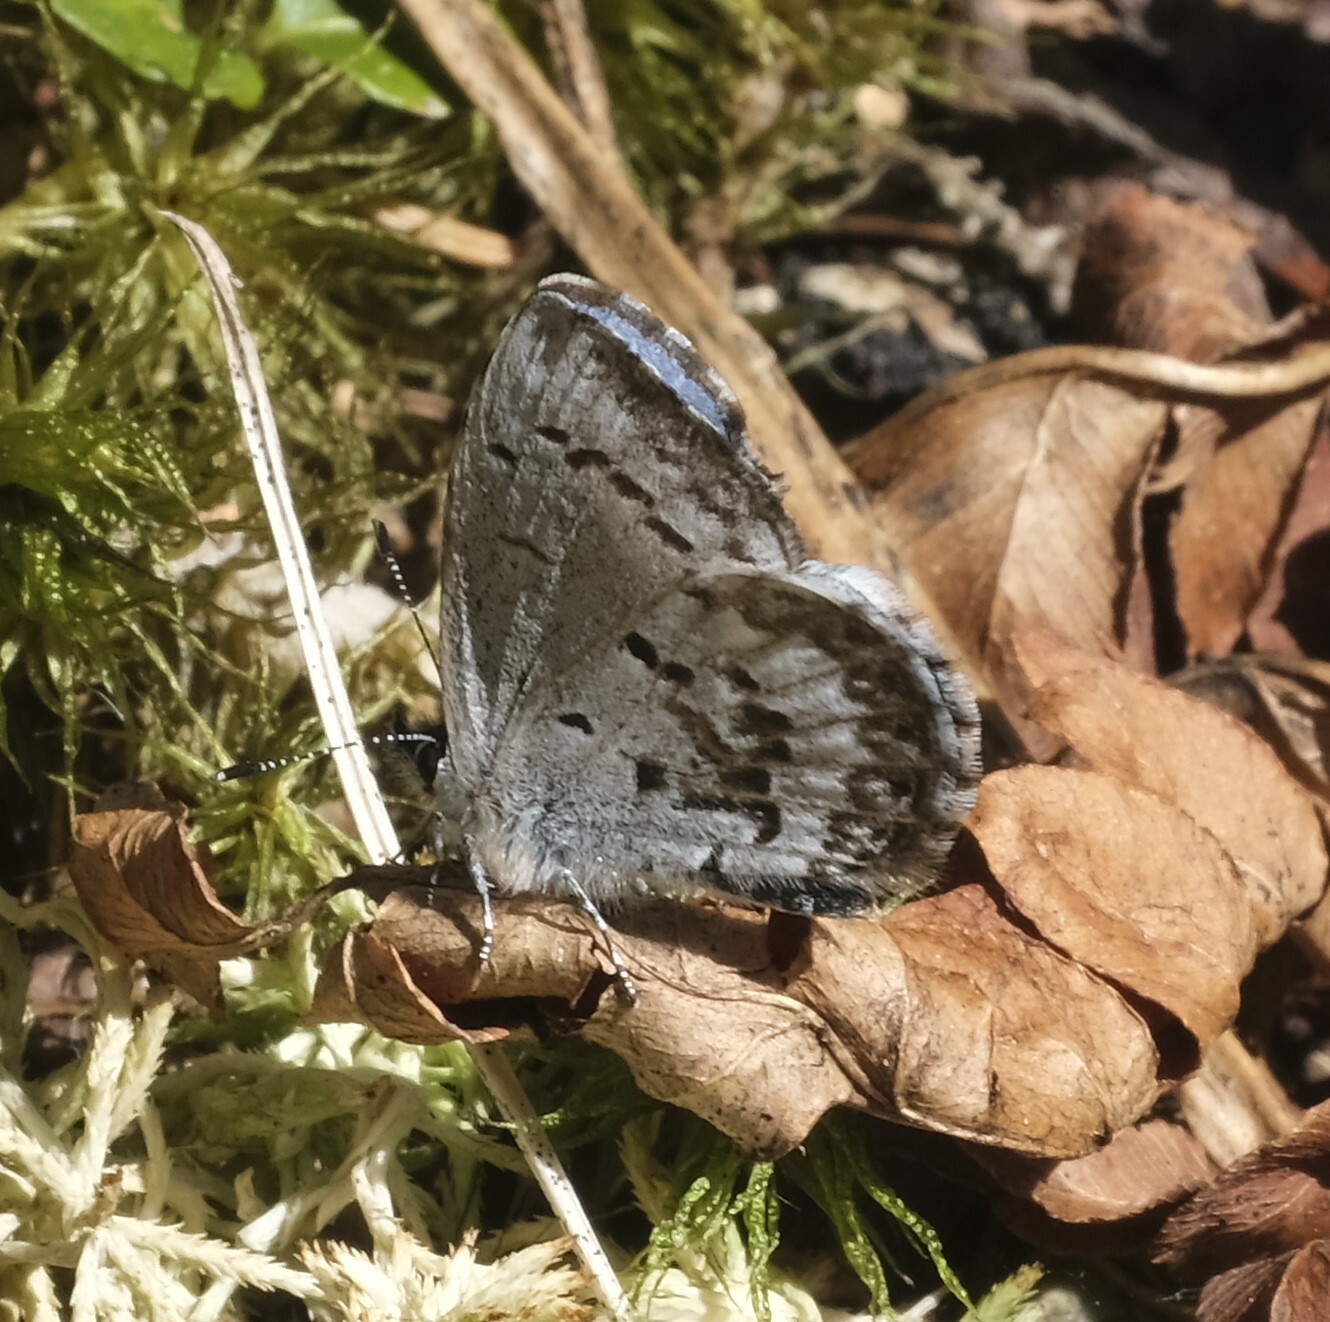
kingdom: Animalia
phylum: Arthropoda
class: Insecta
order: Lepidoptera
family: Lycaenidae
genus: Celastrina
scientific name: Celastrina lucia
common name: Lucia azure
